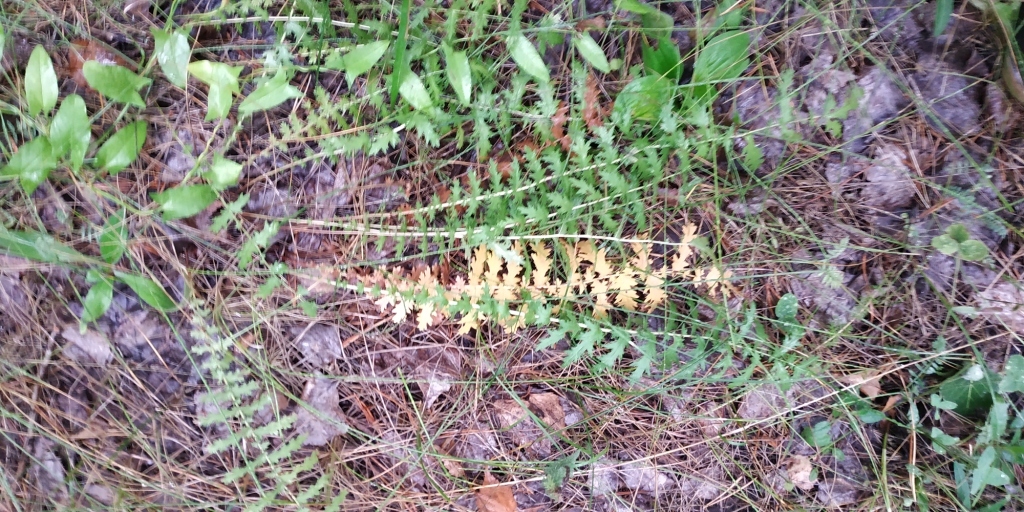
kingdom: Plantae
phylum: Tracheophyta
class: Magnoliopsida
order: Rosales
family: Rosaceae
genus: Filipendula
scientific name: Filipendula vulgaris
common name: Dropwort
